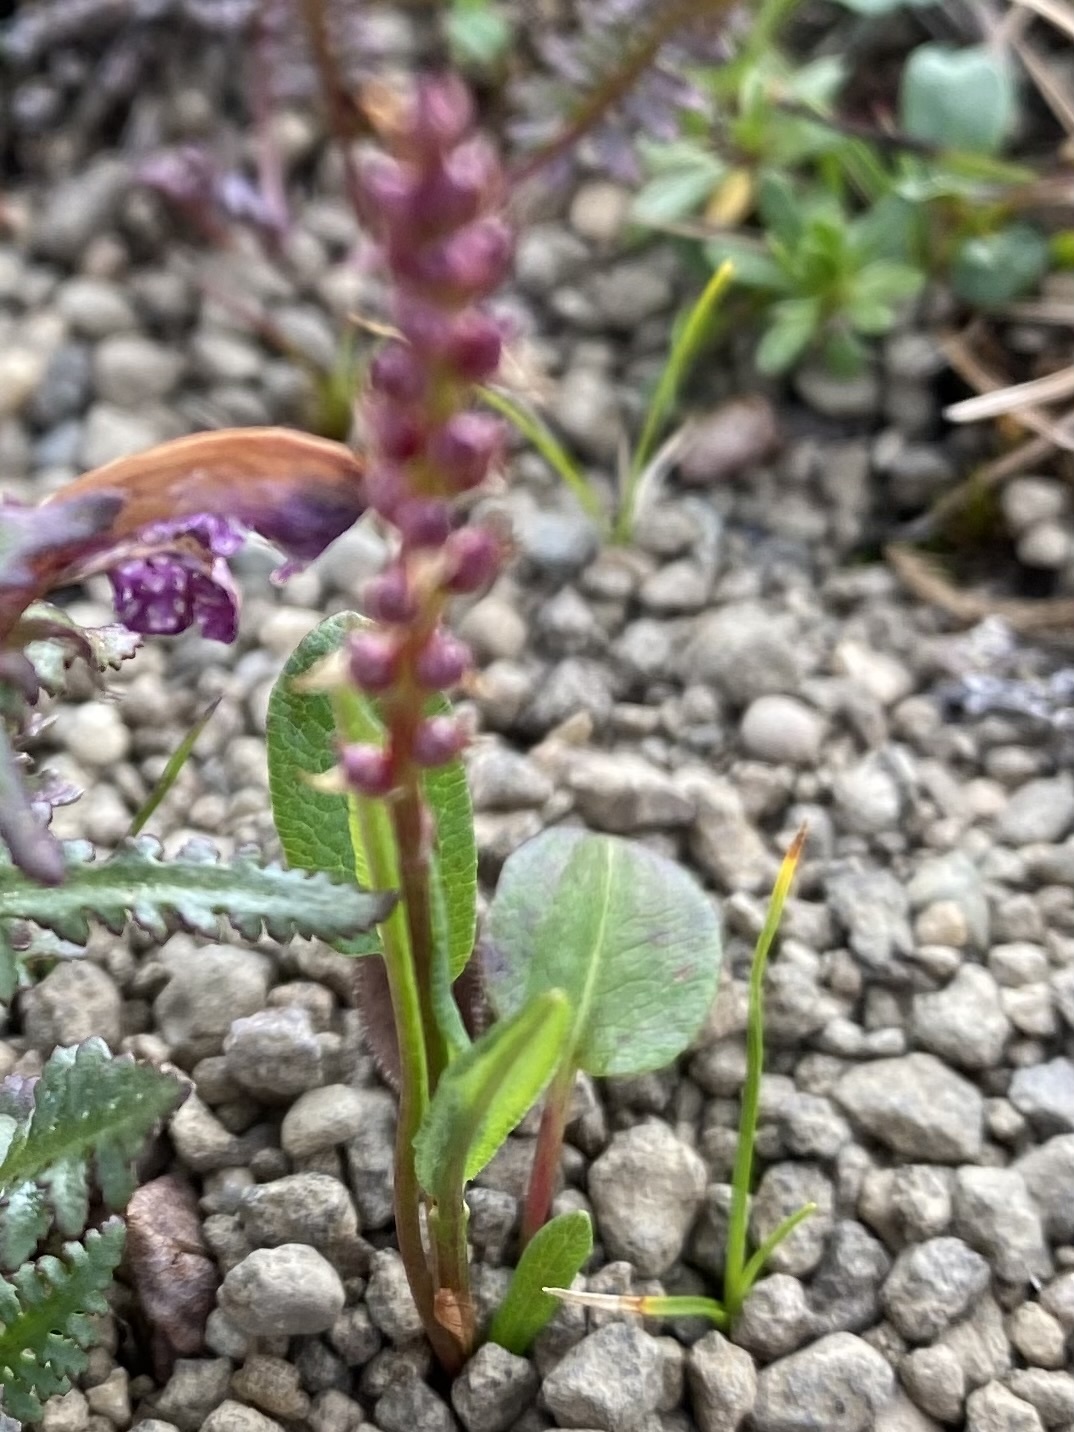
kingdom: Plantae
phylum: Tracheophyta
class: Magnoliopsida
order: Caryophyllales
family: Polygonaceae
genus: Bistorta
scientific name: Bistorta vivipara
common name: Alpine bistort
